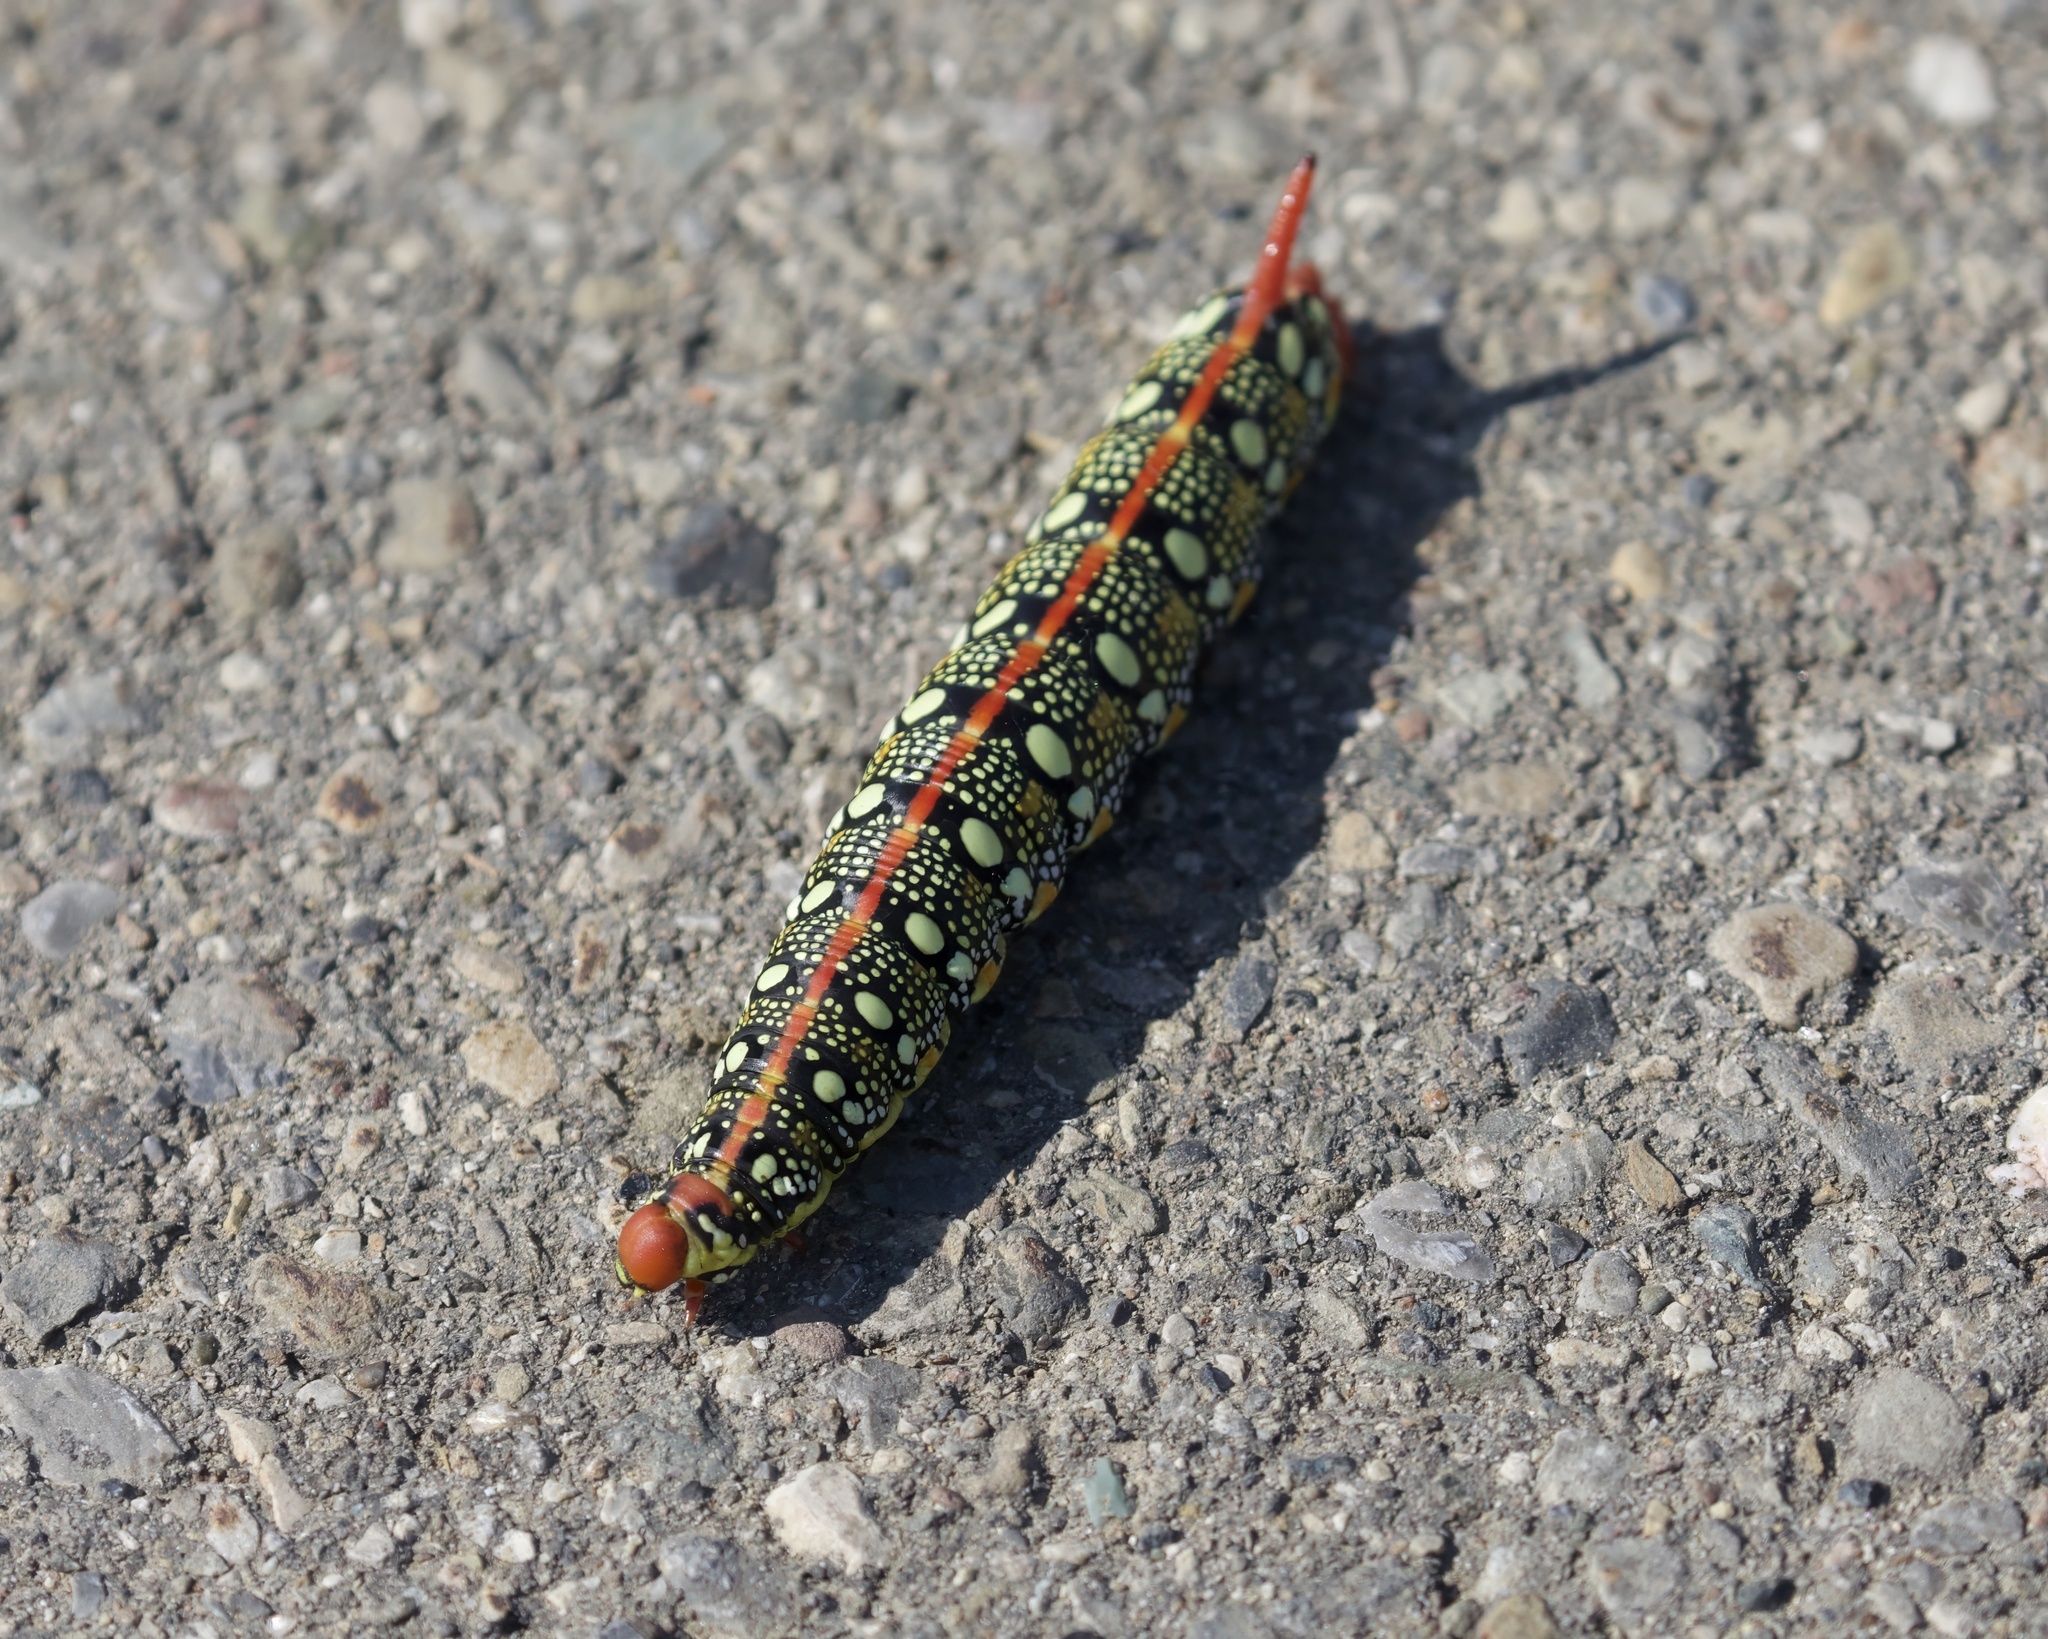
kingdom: Animalia
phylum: Arthropoda
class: Insecta
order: Lepidoptera
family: Sphingidae
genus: Hyles
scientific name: Hyles euphorbiae
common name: Spurge hawk-moth
